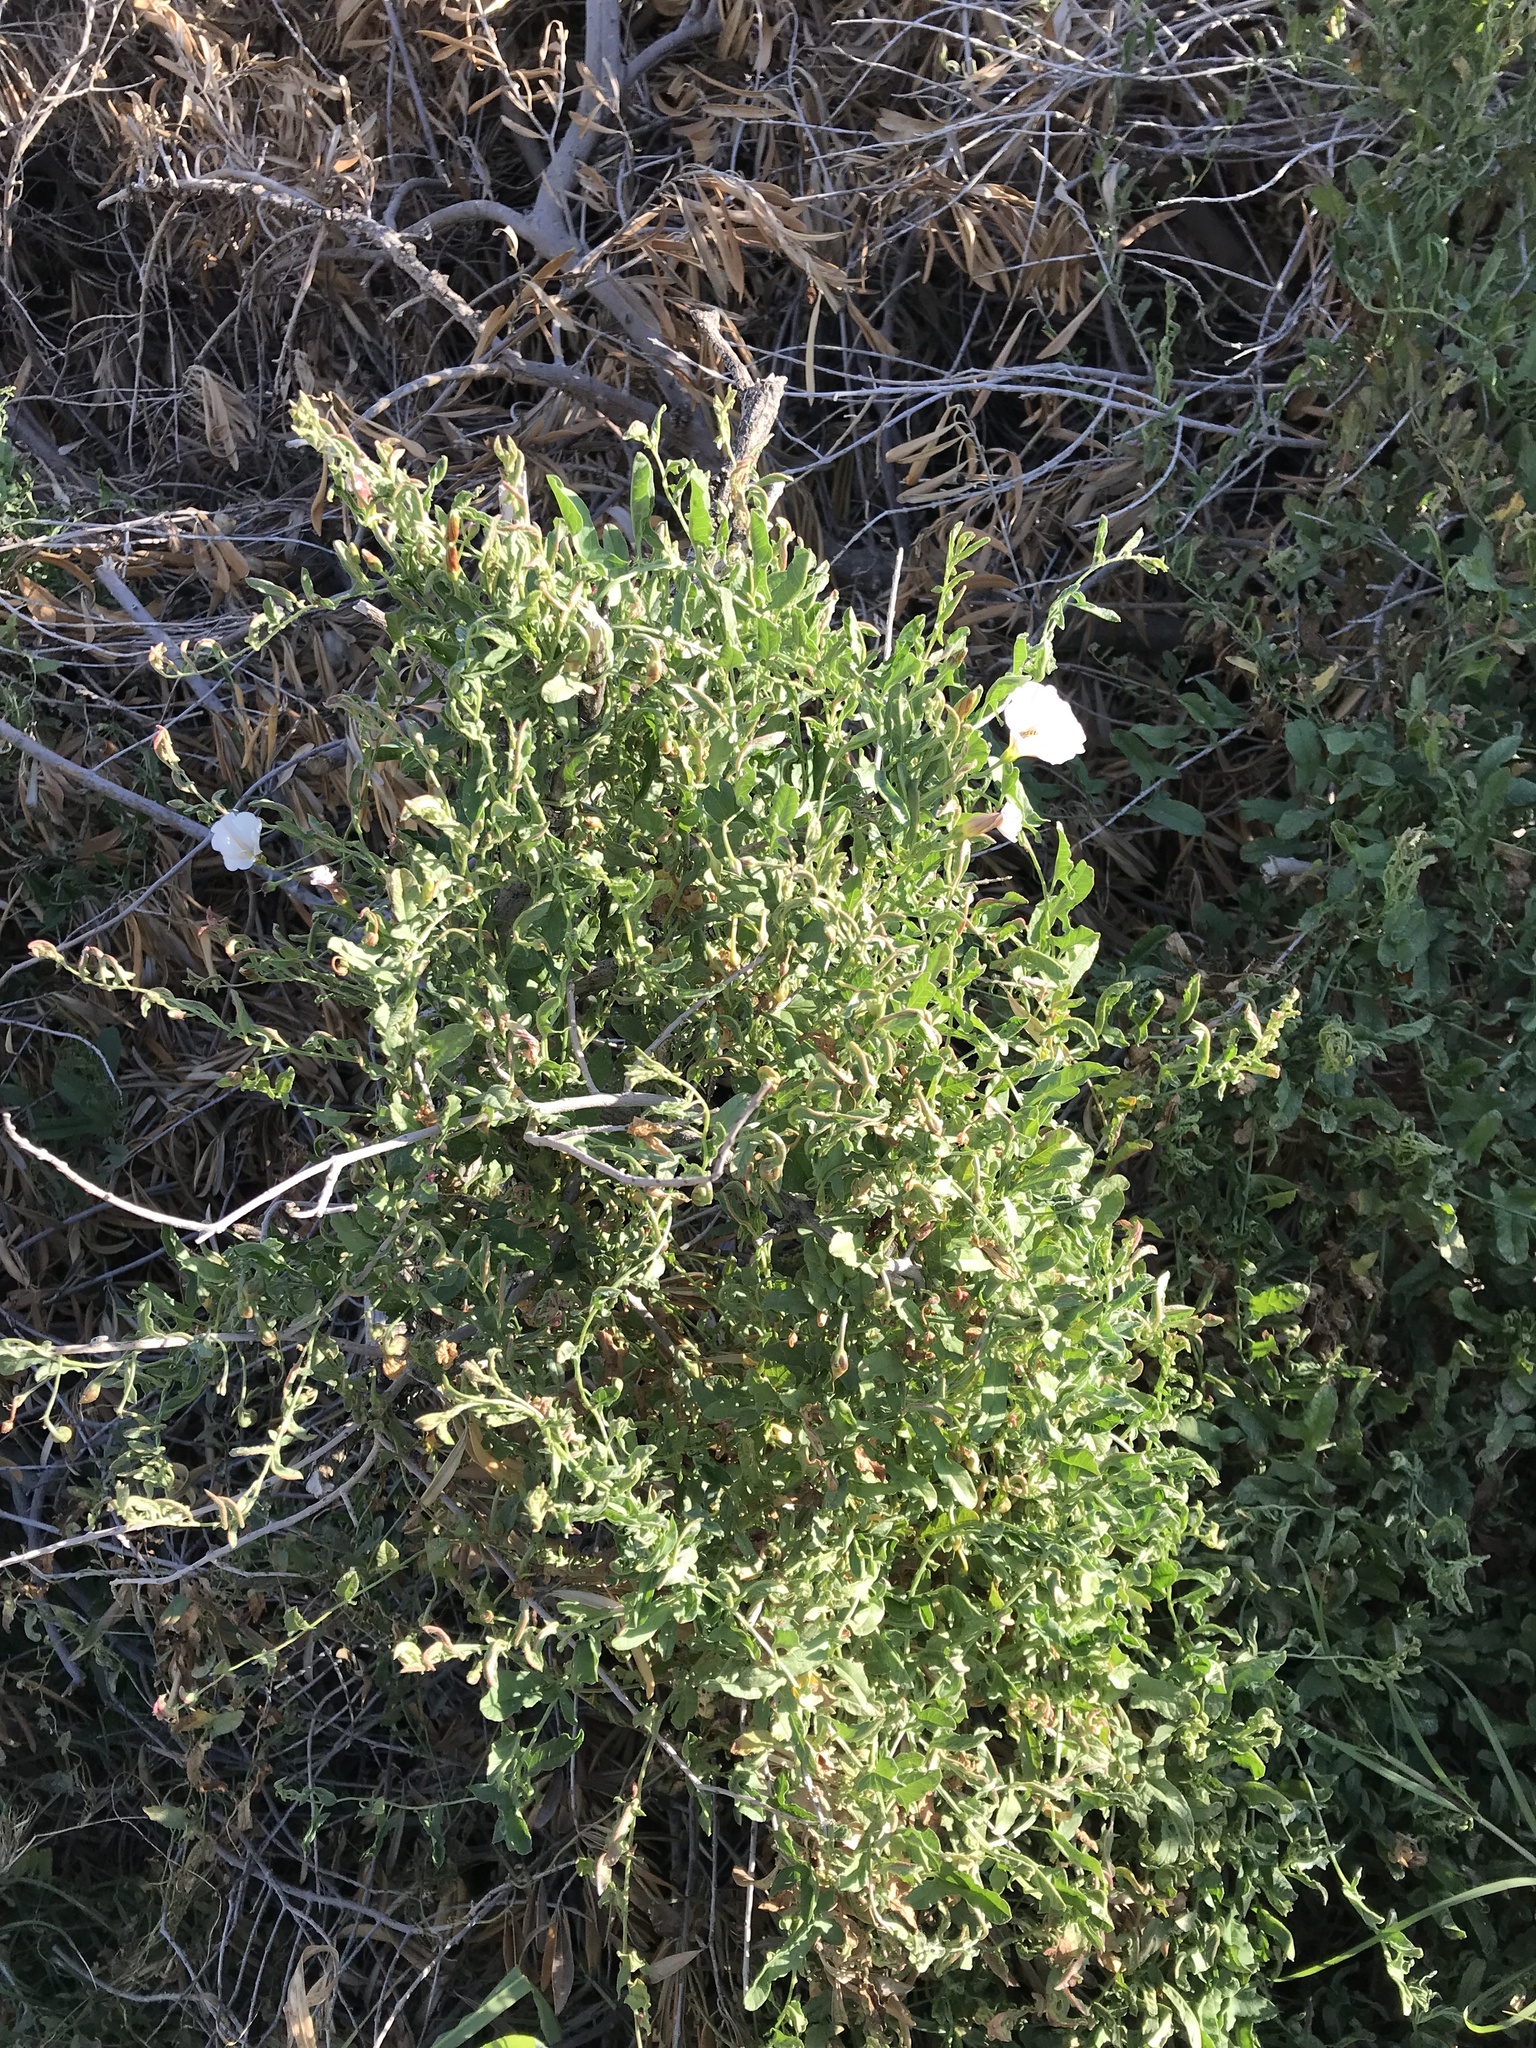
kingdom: Plantae
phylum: Tracheophyta
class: Magnoliopsida
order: Solanales
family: Convolvulaceae
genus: Convolvulus
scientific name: Convolvulus arvensis
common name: Field bindweed
